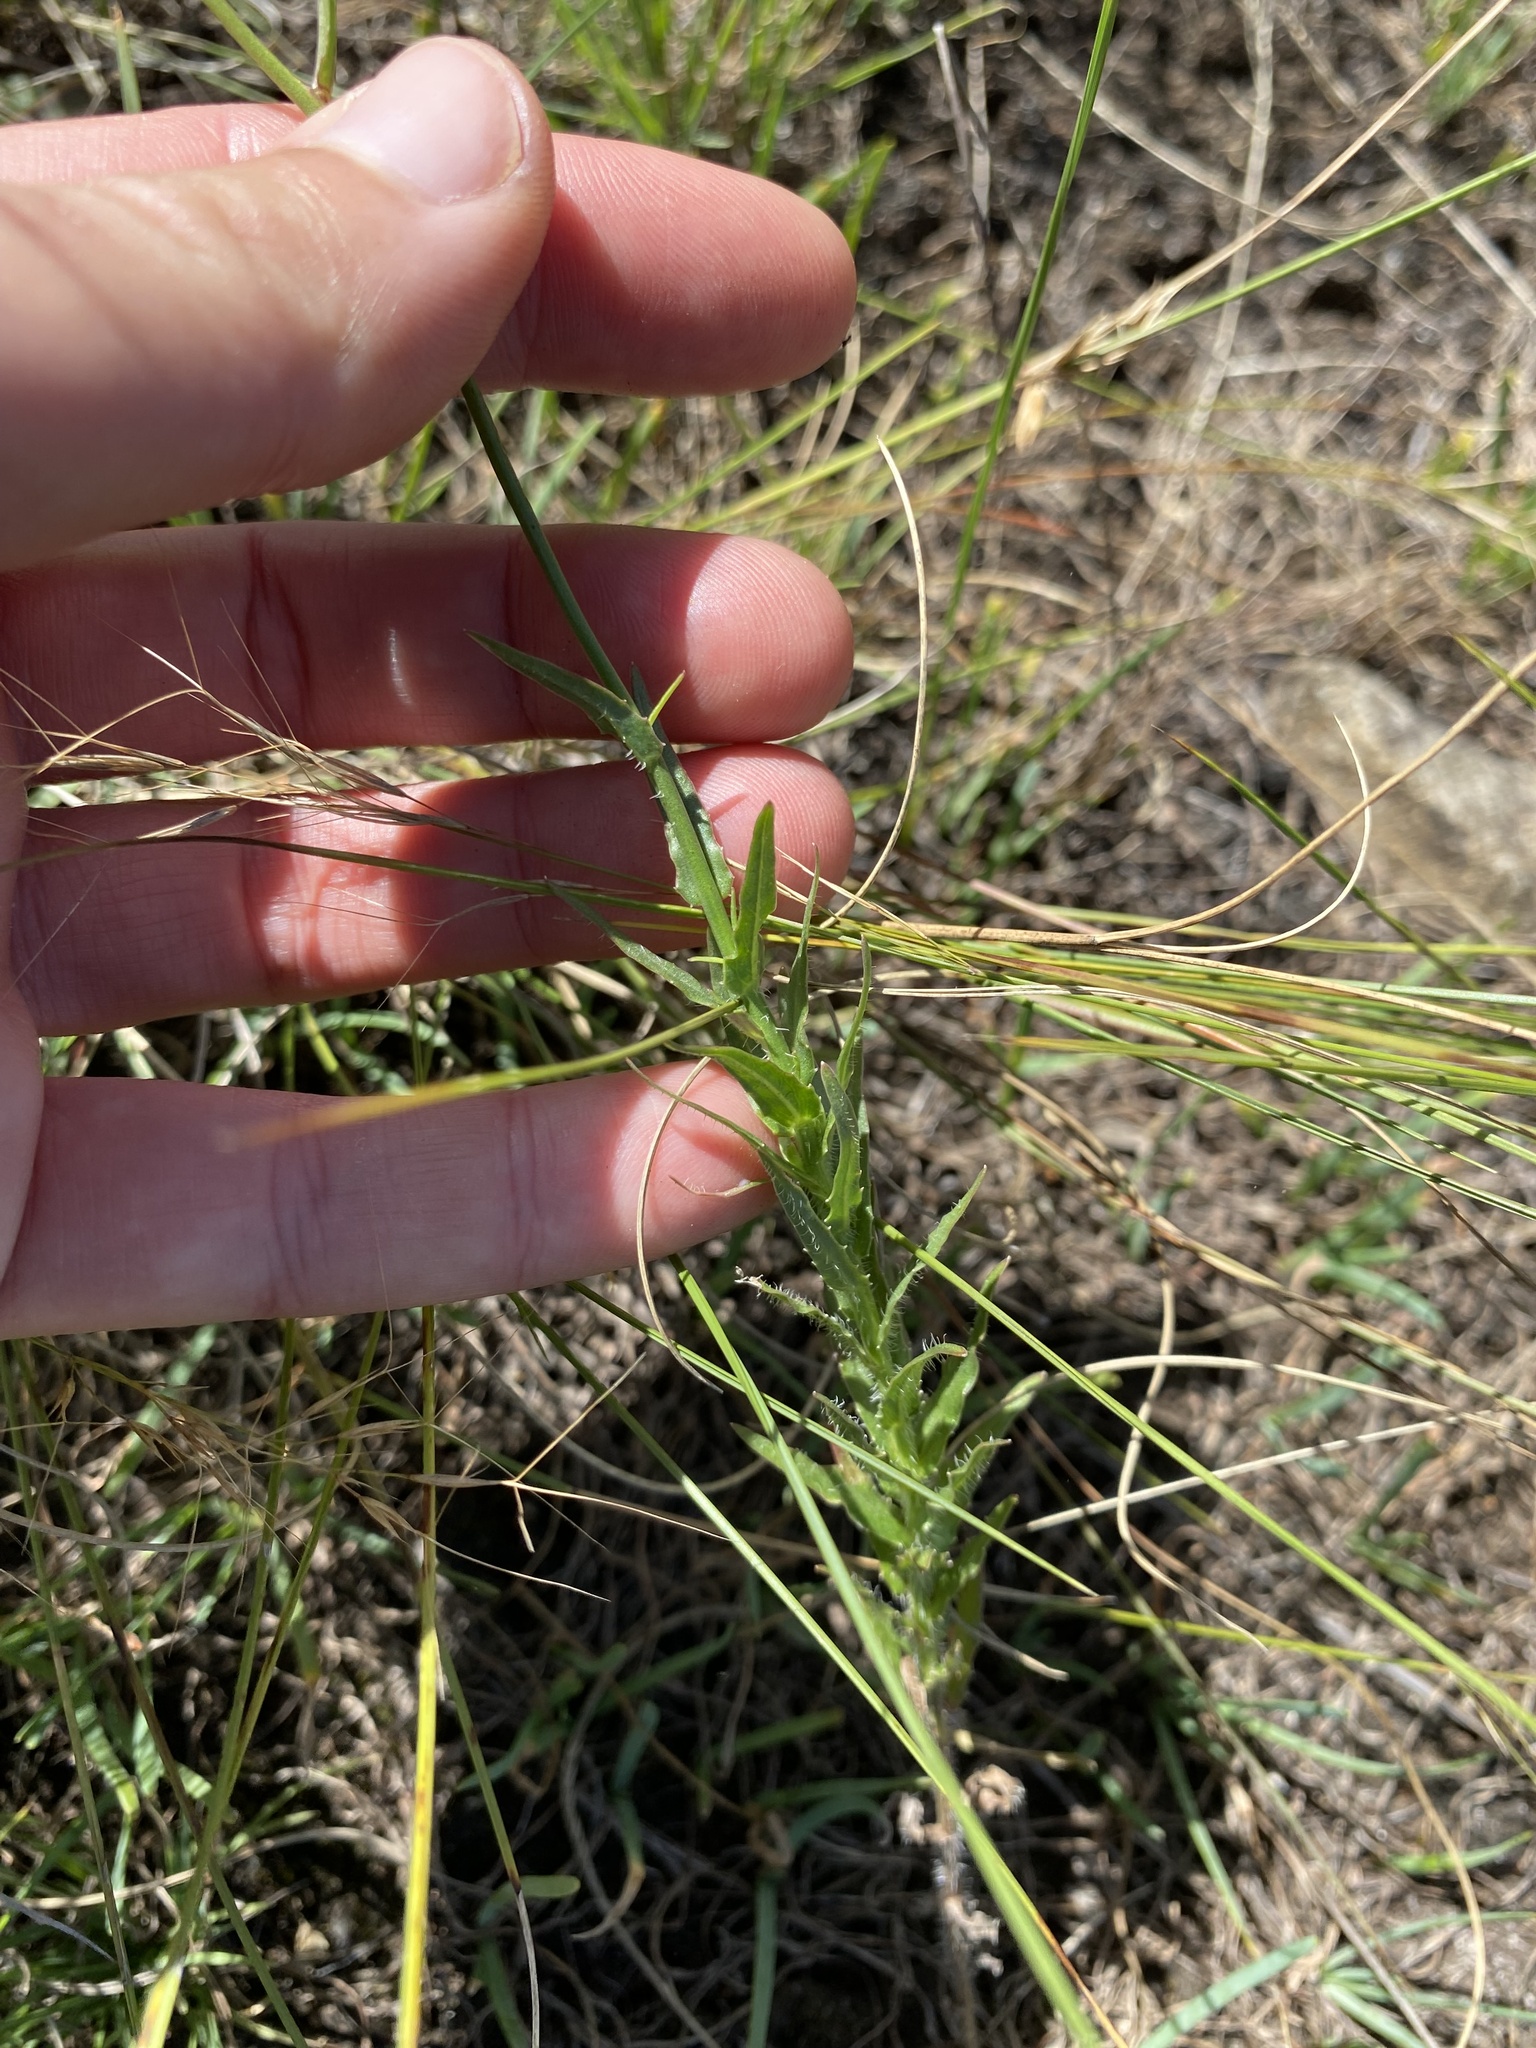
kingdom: Plantae
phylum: Tracheophyta
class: Magnoliopsida
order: Asterales
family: Campanulaceae
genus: Wahlenbergia
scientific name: Wahlenbergia undulata
